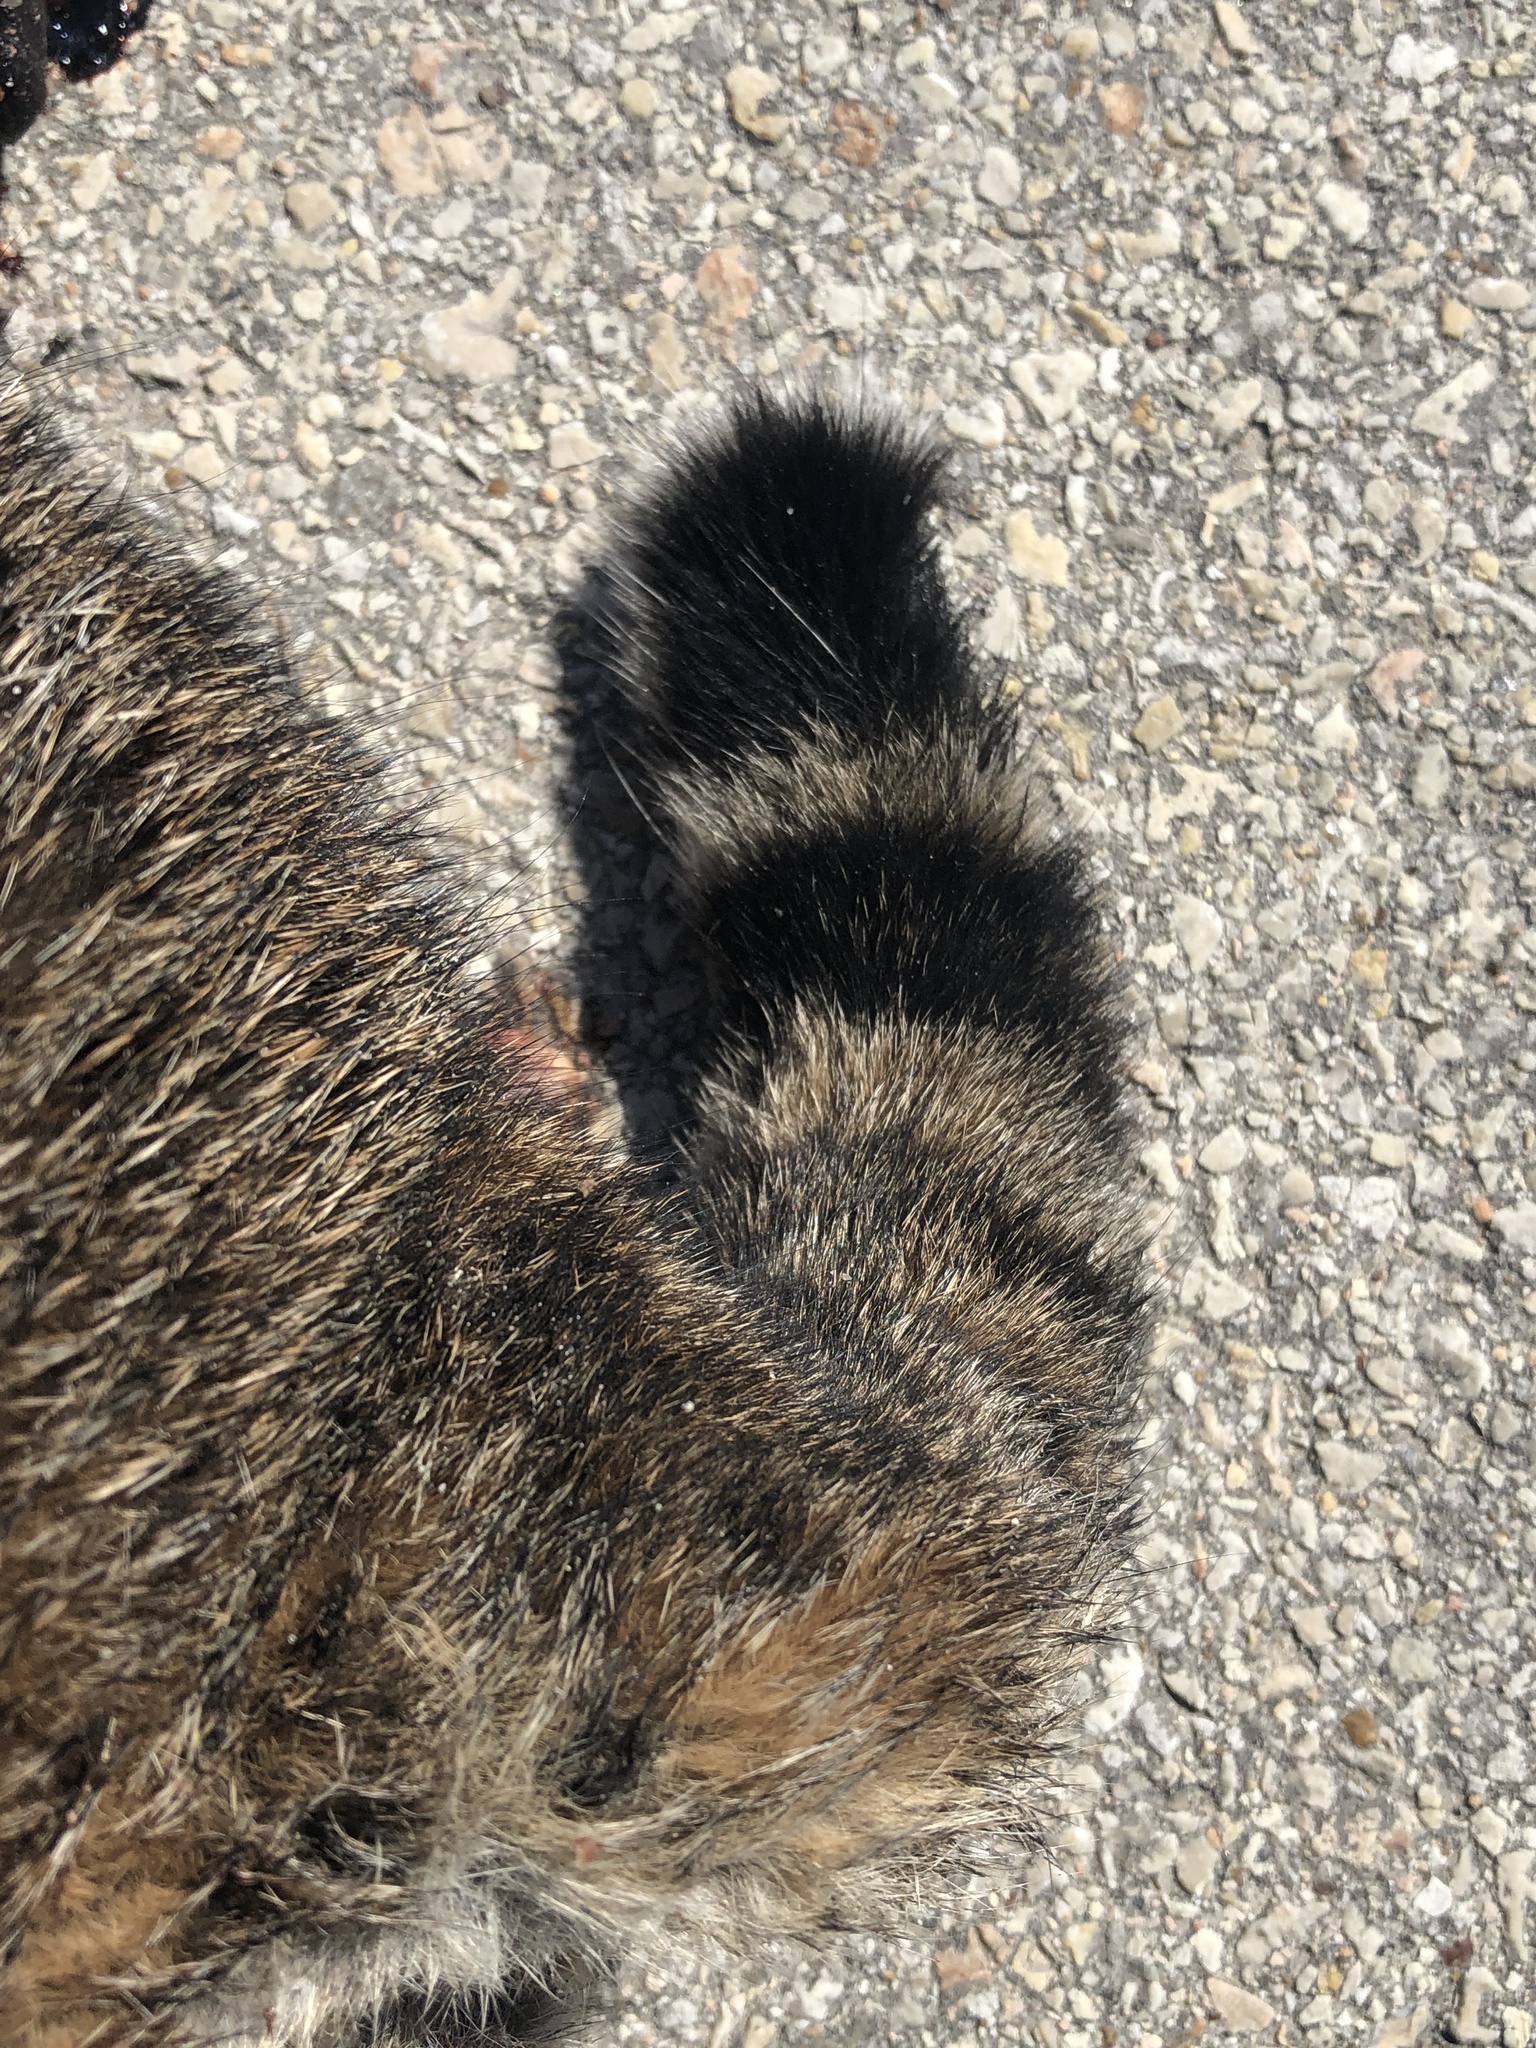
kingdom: Animalia
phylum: Chordata
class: Mammalia
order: Carnivora
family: Felidae
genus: Lynx
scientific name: Lynx rufus
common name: Bobcat
